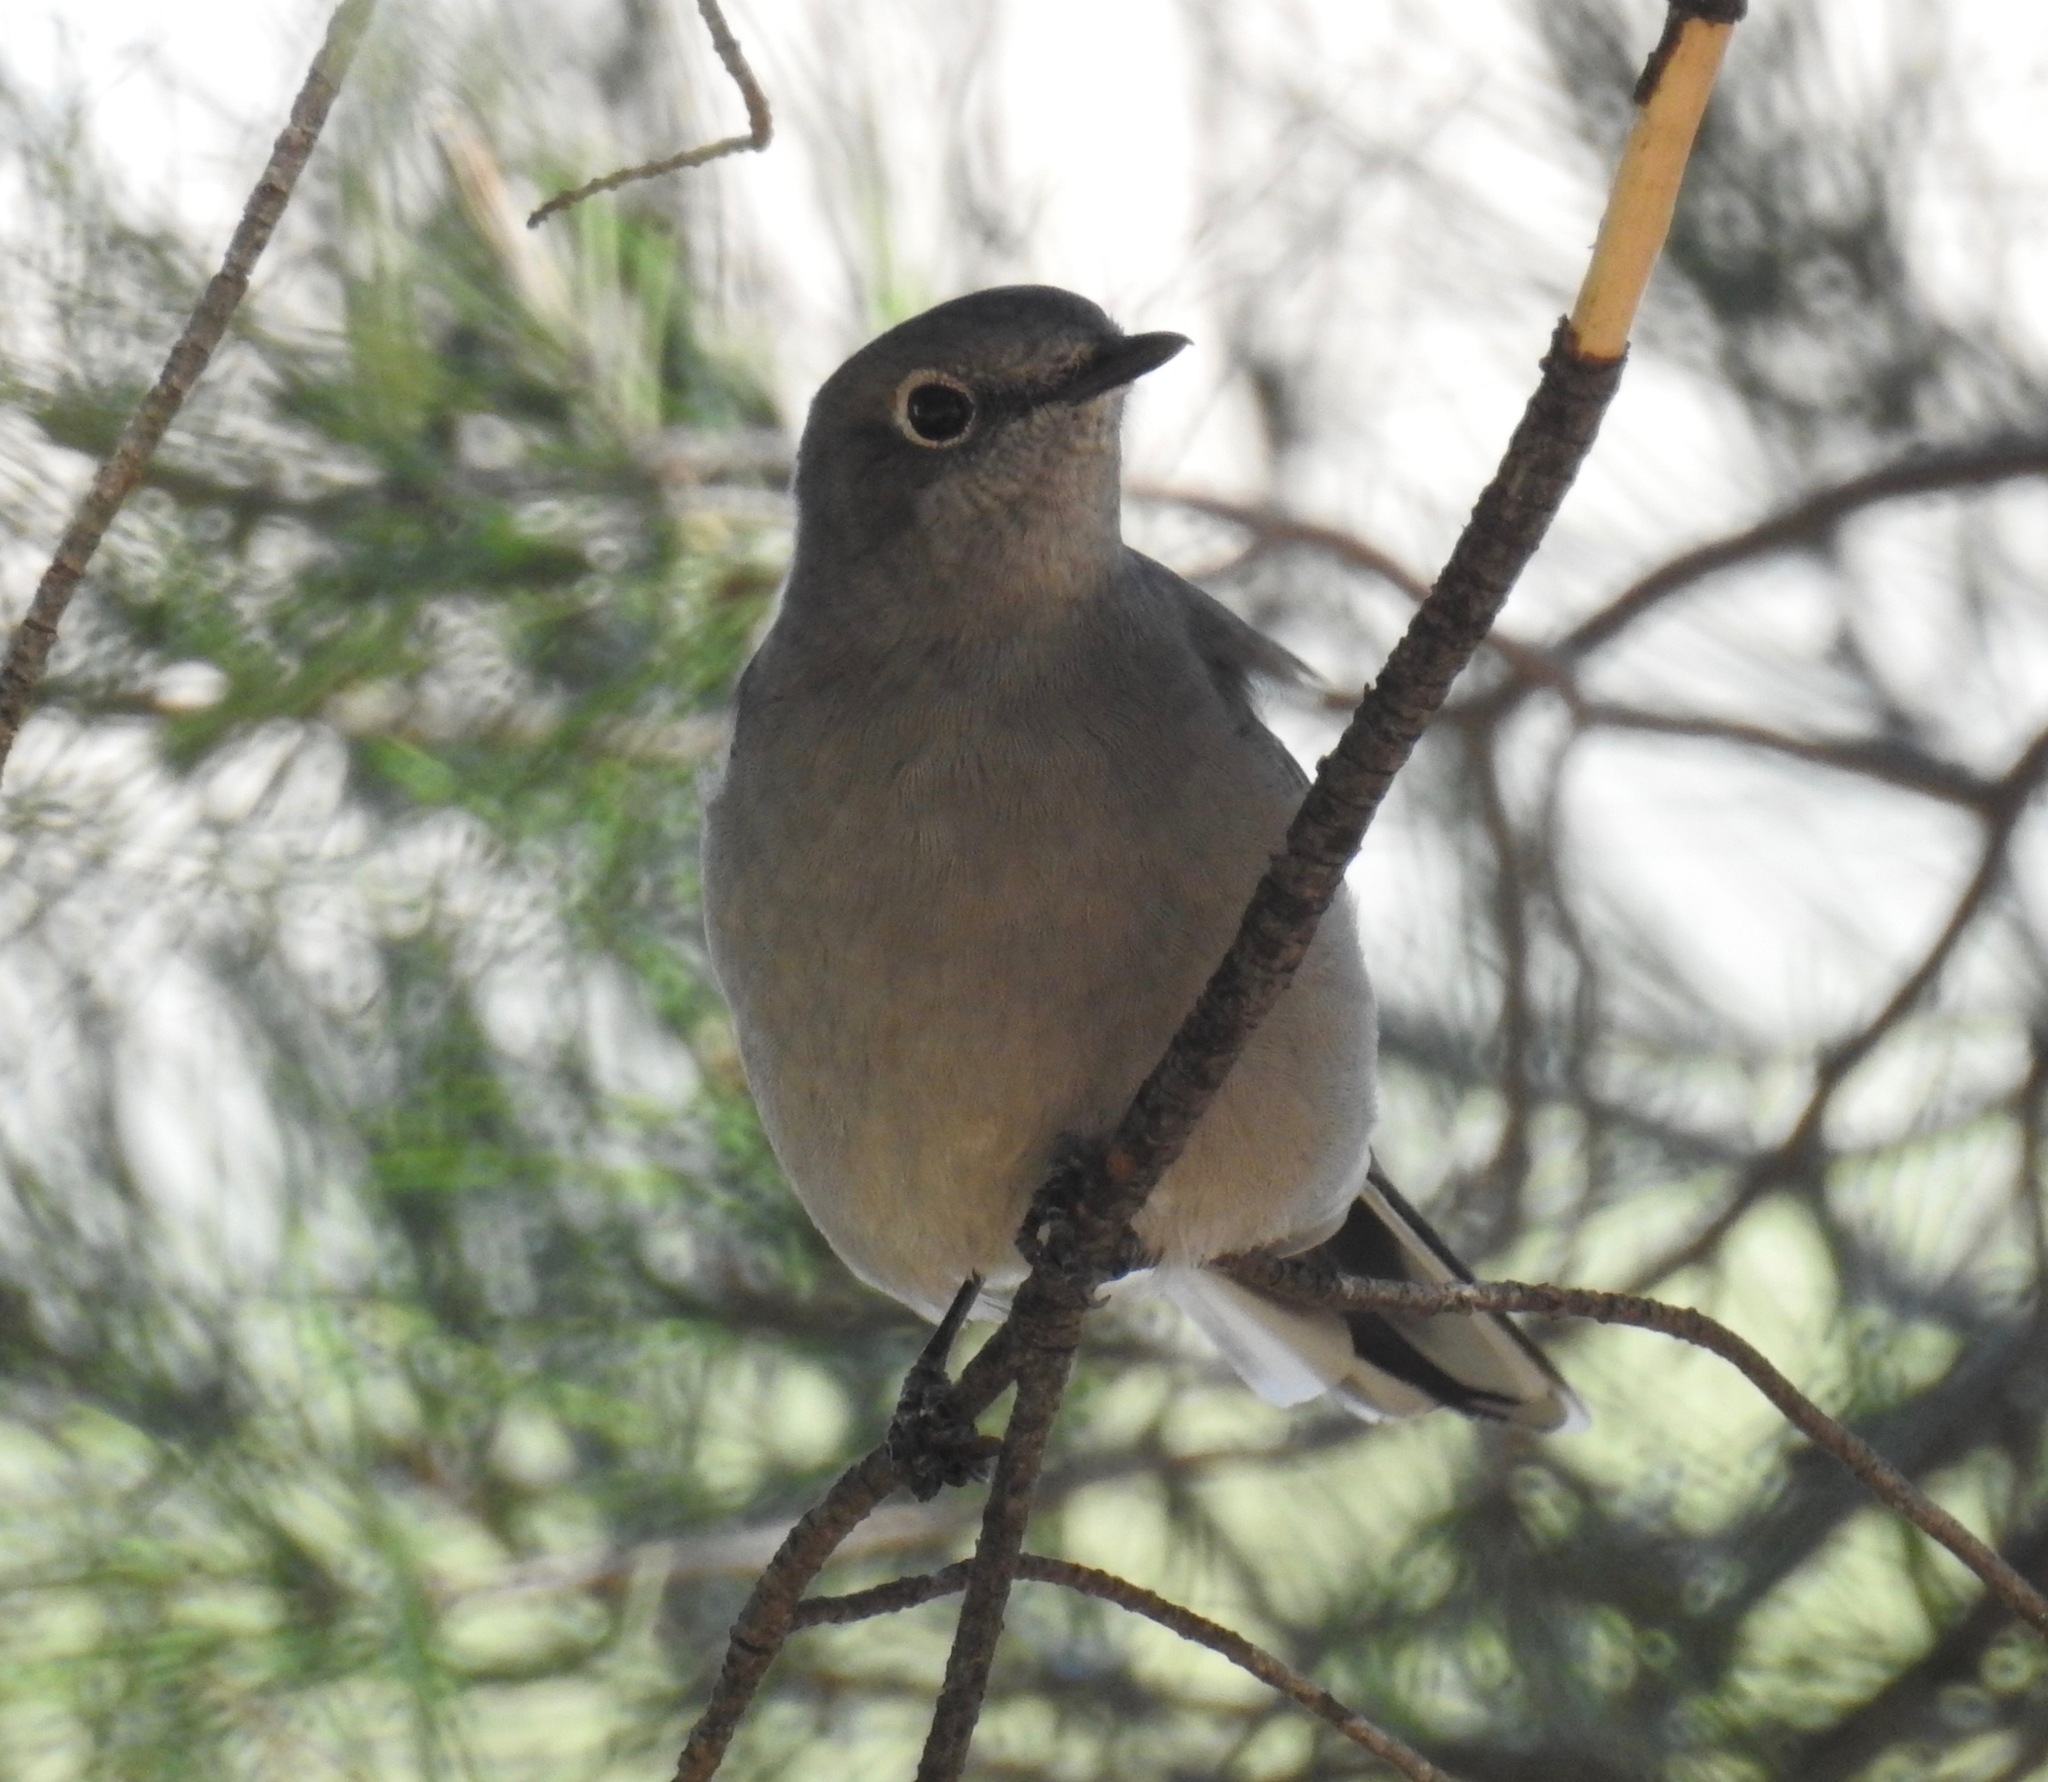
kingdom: Animalia
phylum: Chordata
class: Aves
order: Passeriformes
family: Turdidae
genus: Myadestes
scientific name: Myadestes townsendi
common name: Townsend's solitaire
